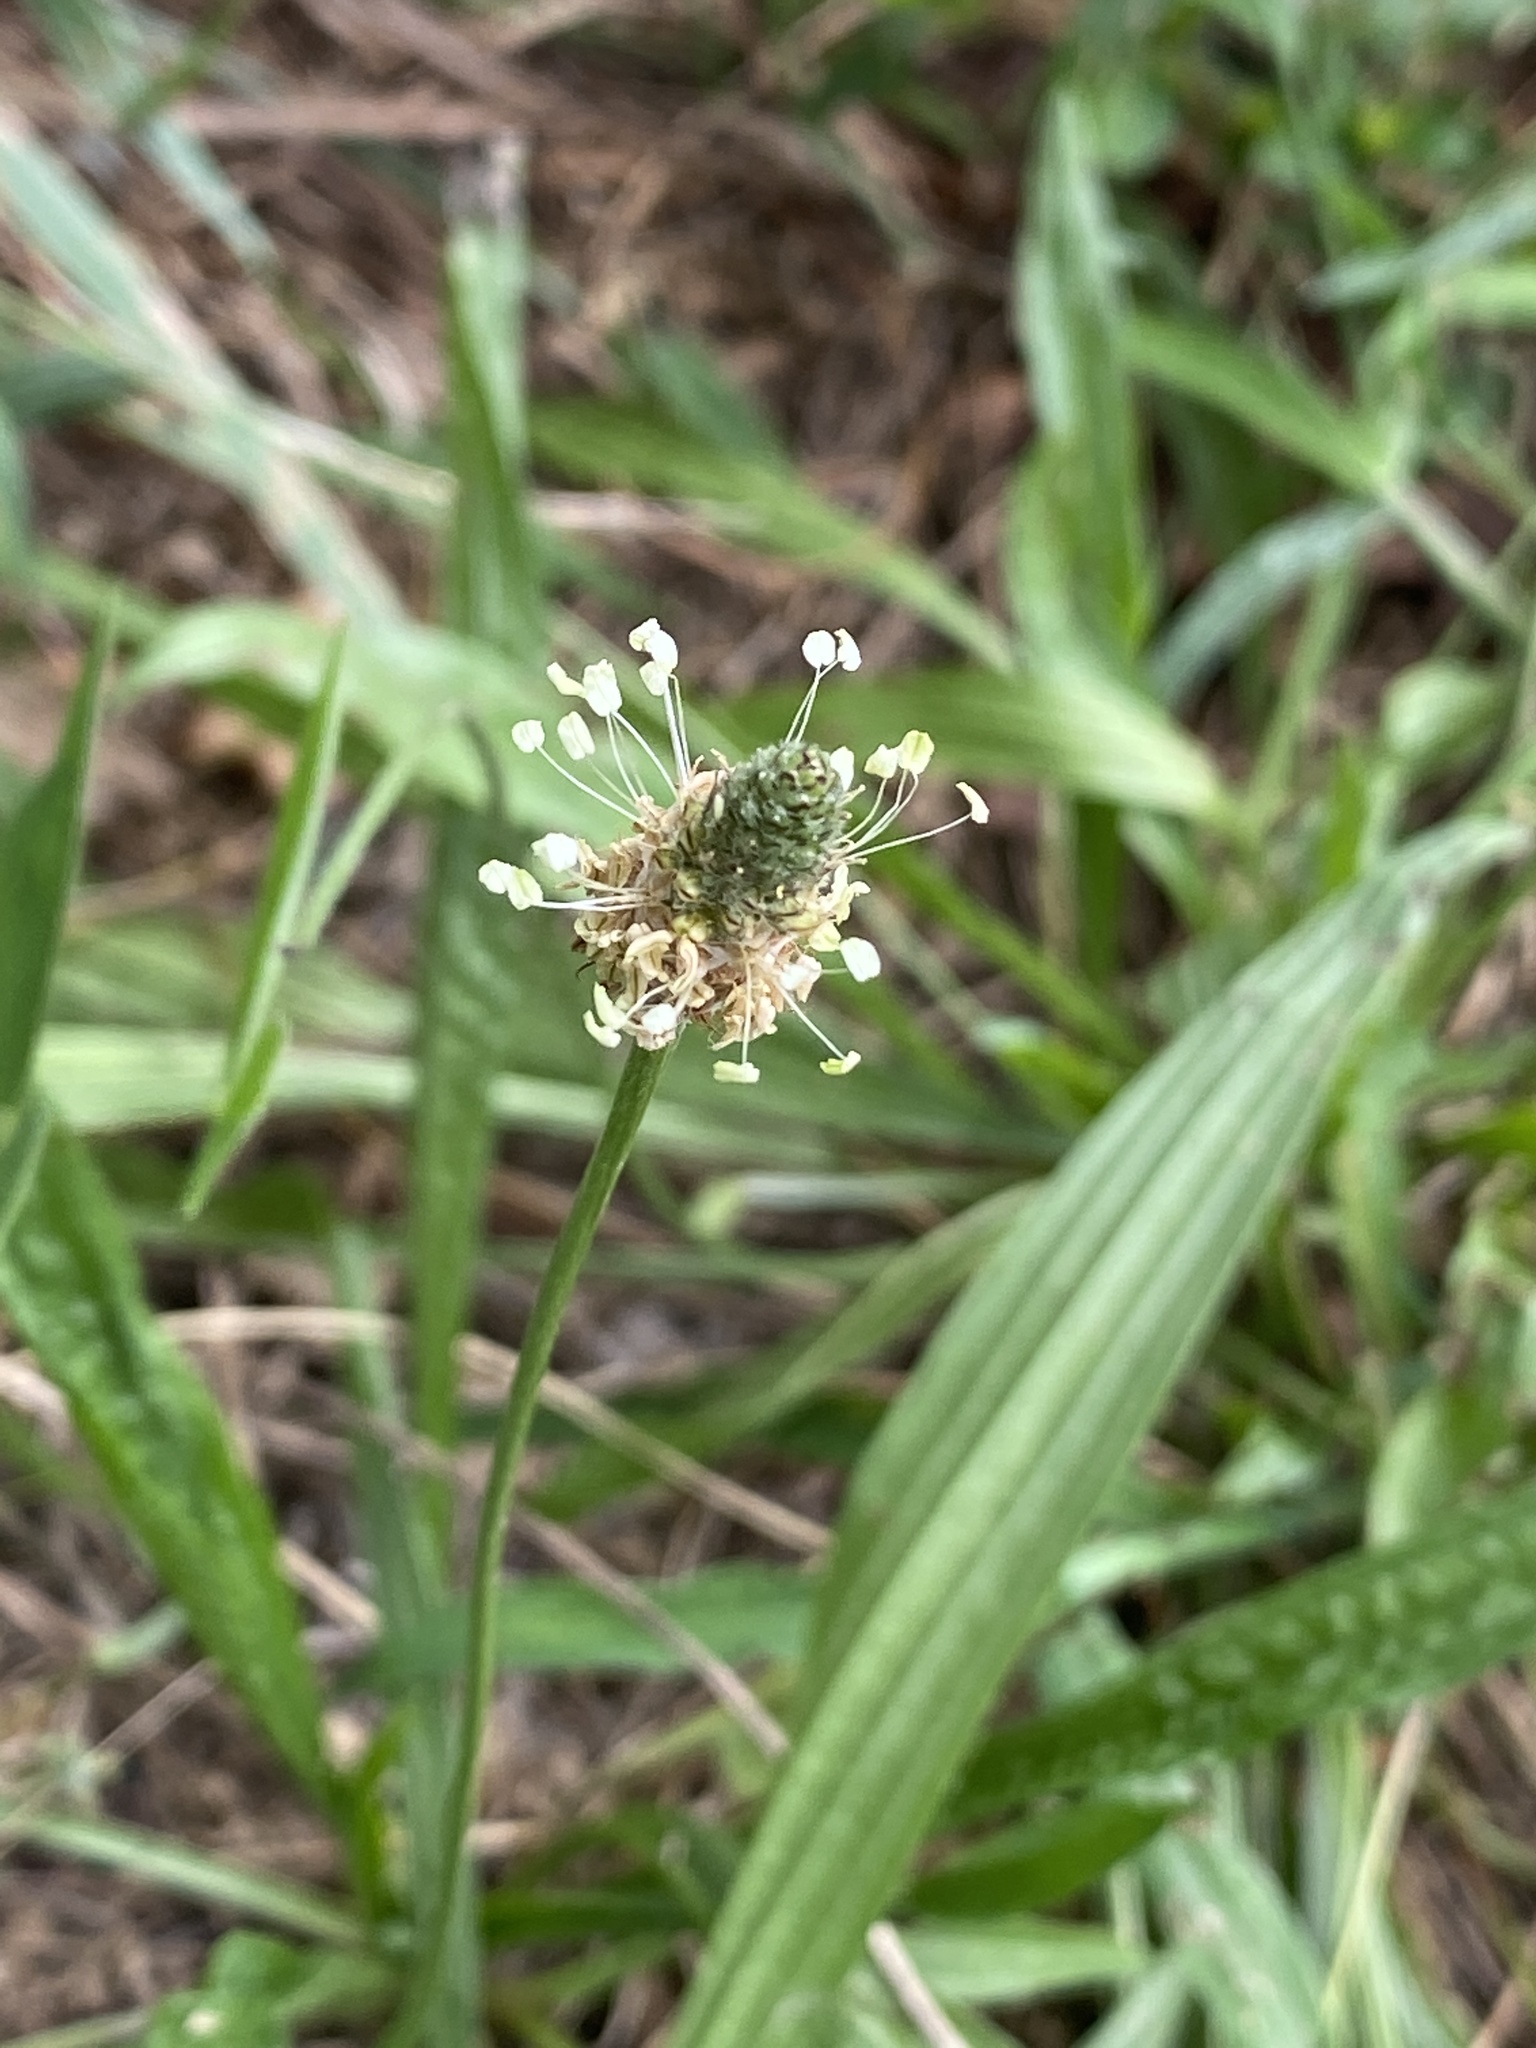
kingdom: Plantae
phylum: Tracheophyta
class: Magnoliopsida
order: Lamiales
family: Plantaginaceae
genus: Plantago
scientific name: Plantago lanceolata
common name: Ribwort plantain
